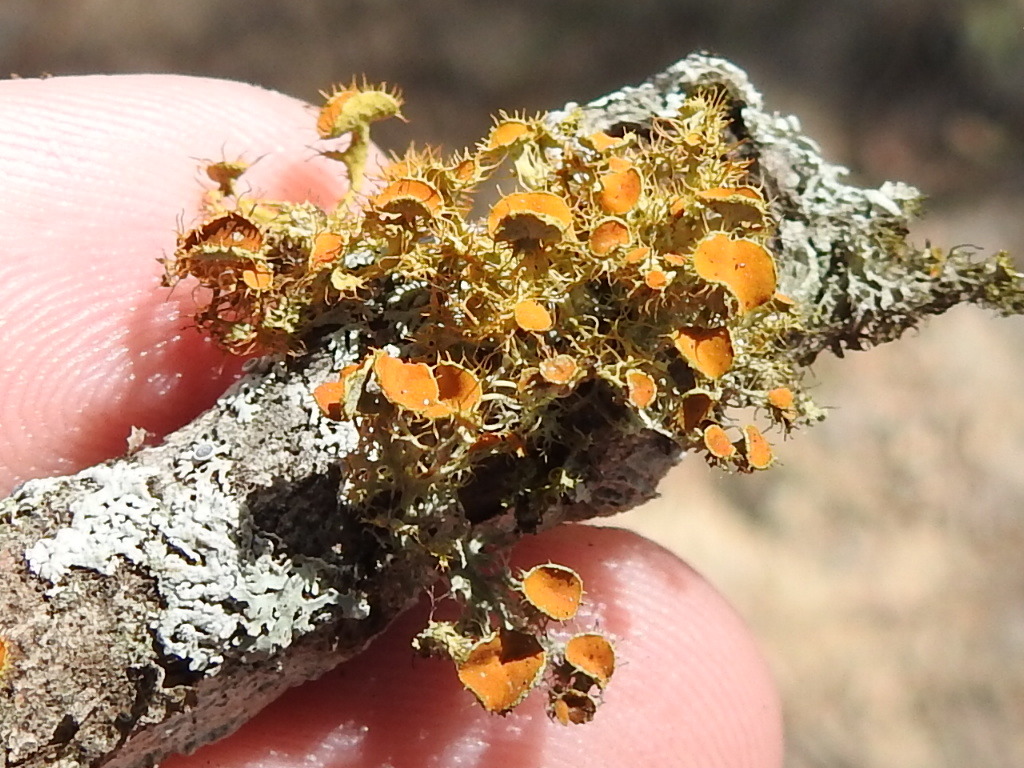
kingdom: Fungi
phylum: Ascomycota
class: Lecanoromycetes
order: Teloschistales
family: Teloschistaceae
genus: Niorma
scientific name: Niorma chrysophthalma
